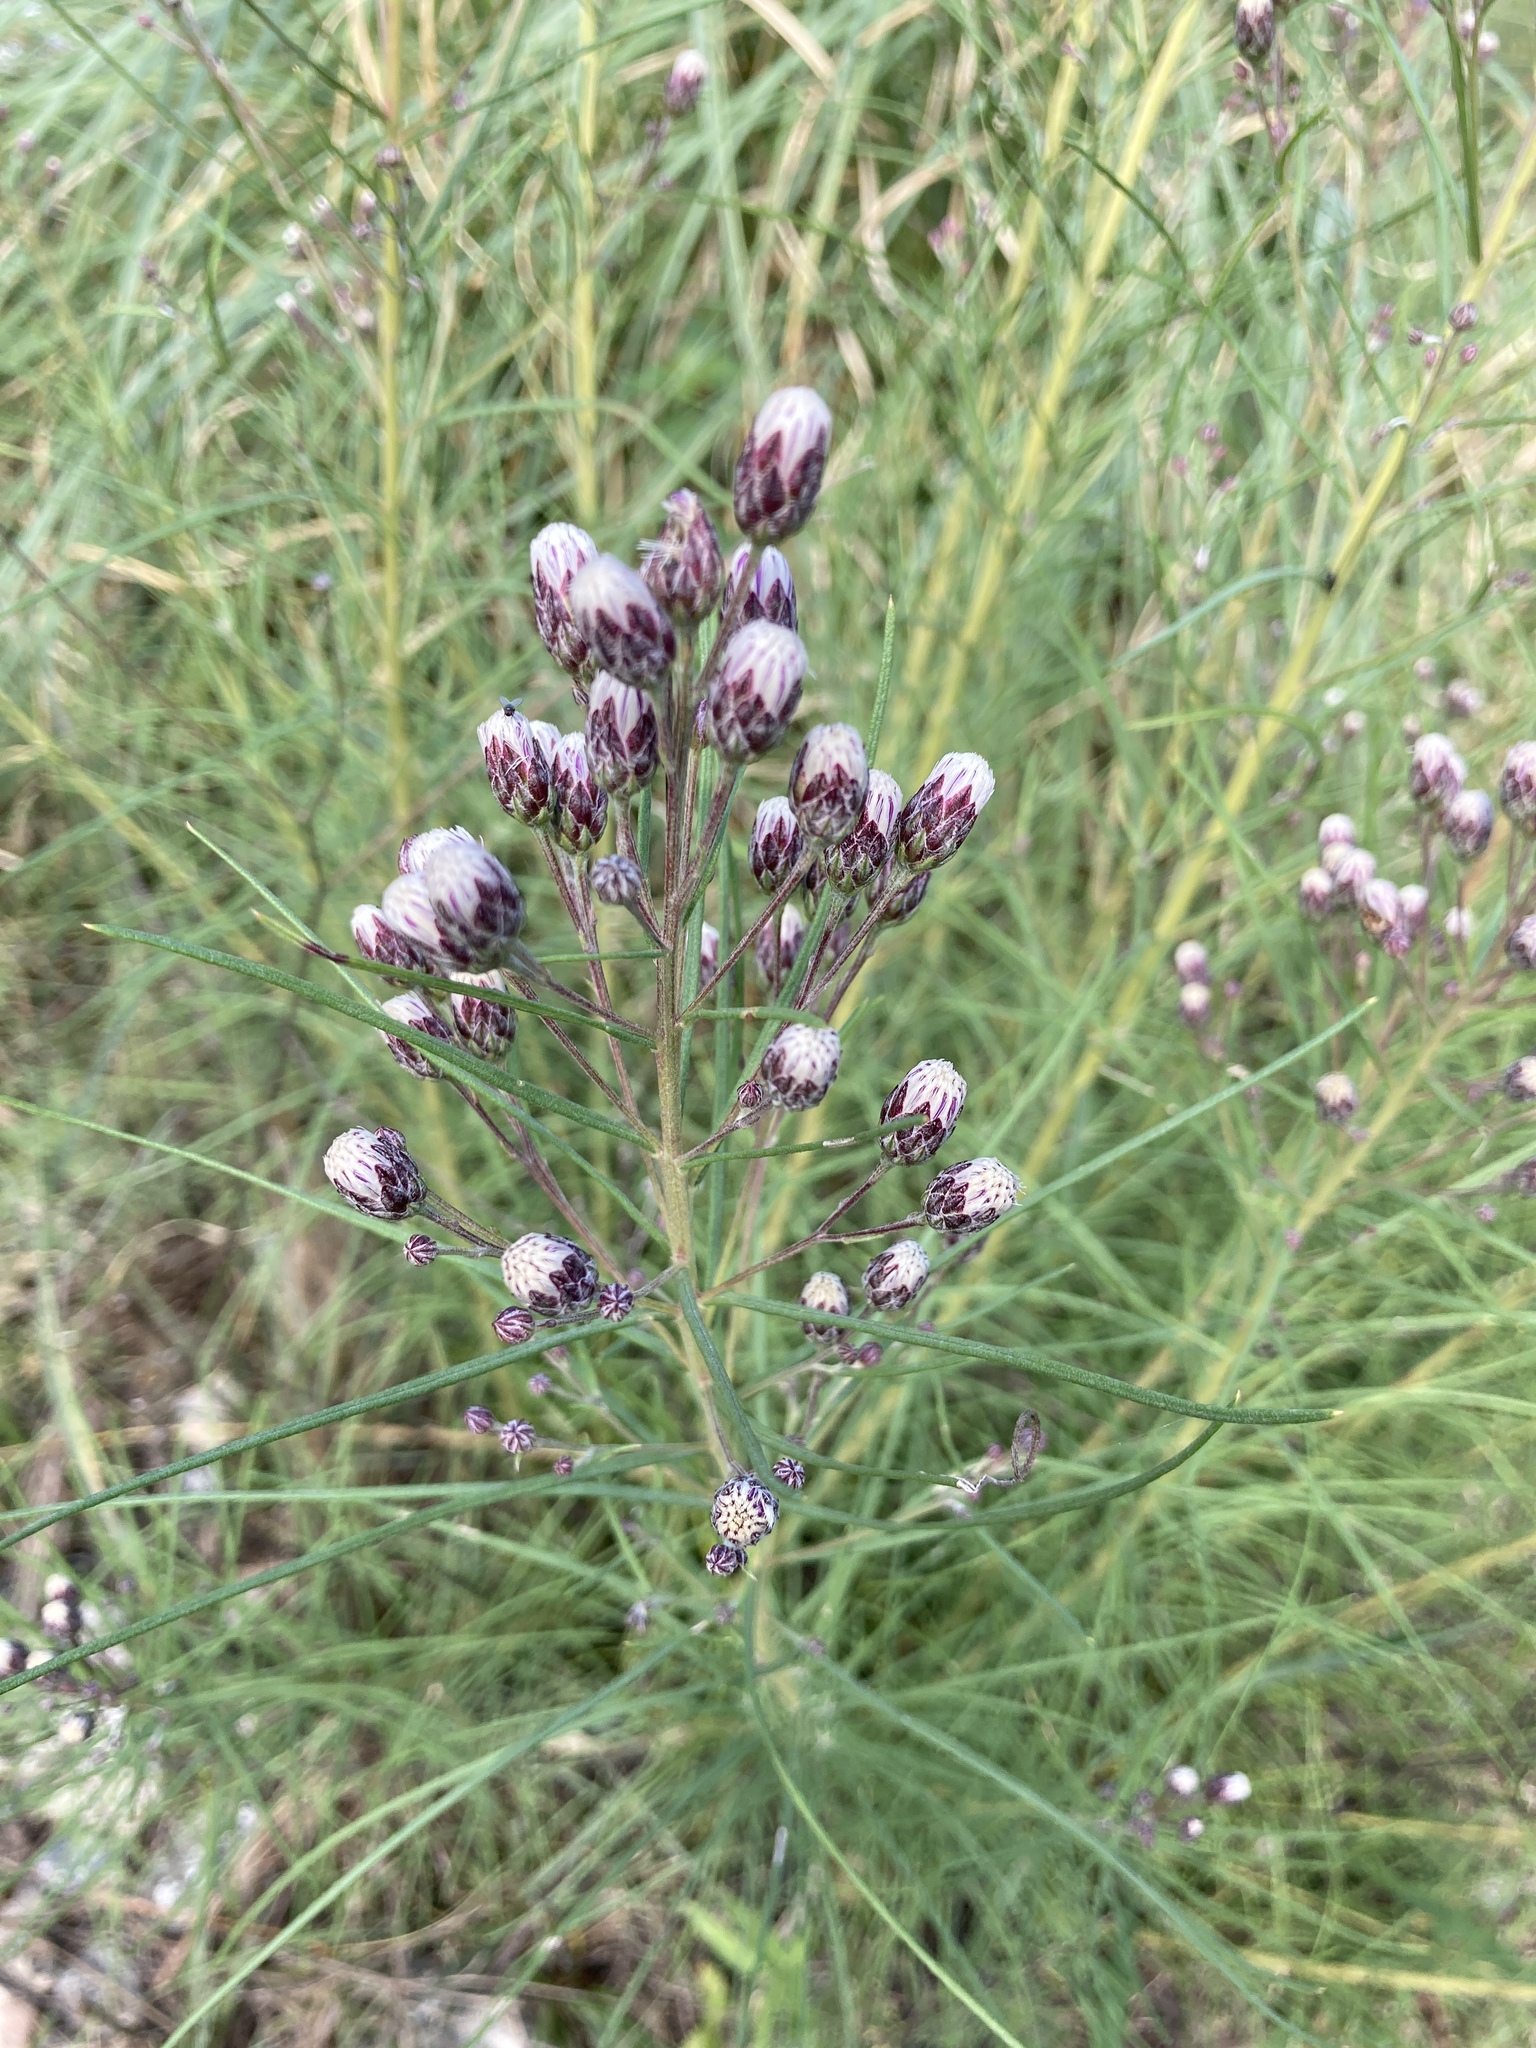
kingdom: Plantae
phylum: Tracheophyta
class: Magnoliopsida
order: Asterales
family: Asteraceae
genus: Vernonanthura
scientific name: Vernonanthura nudiflora
